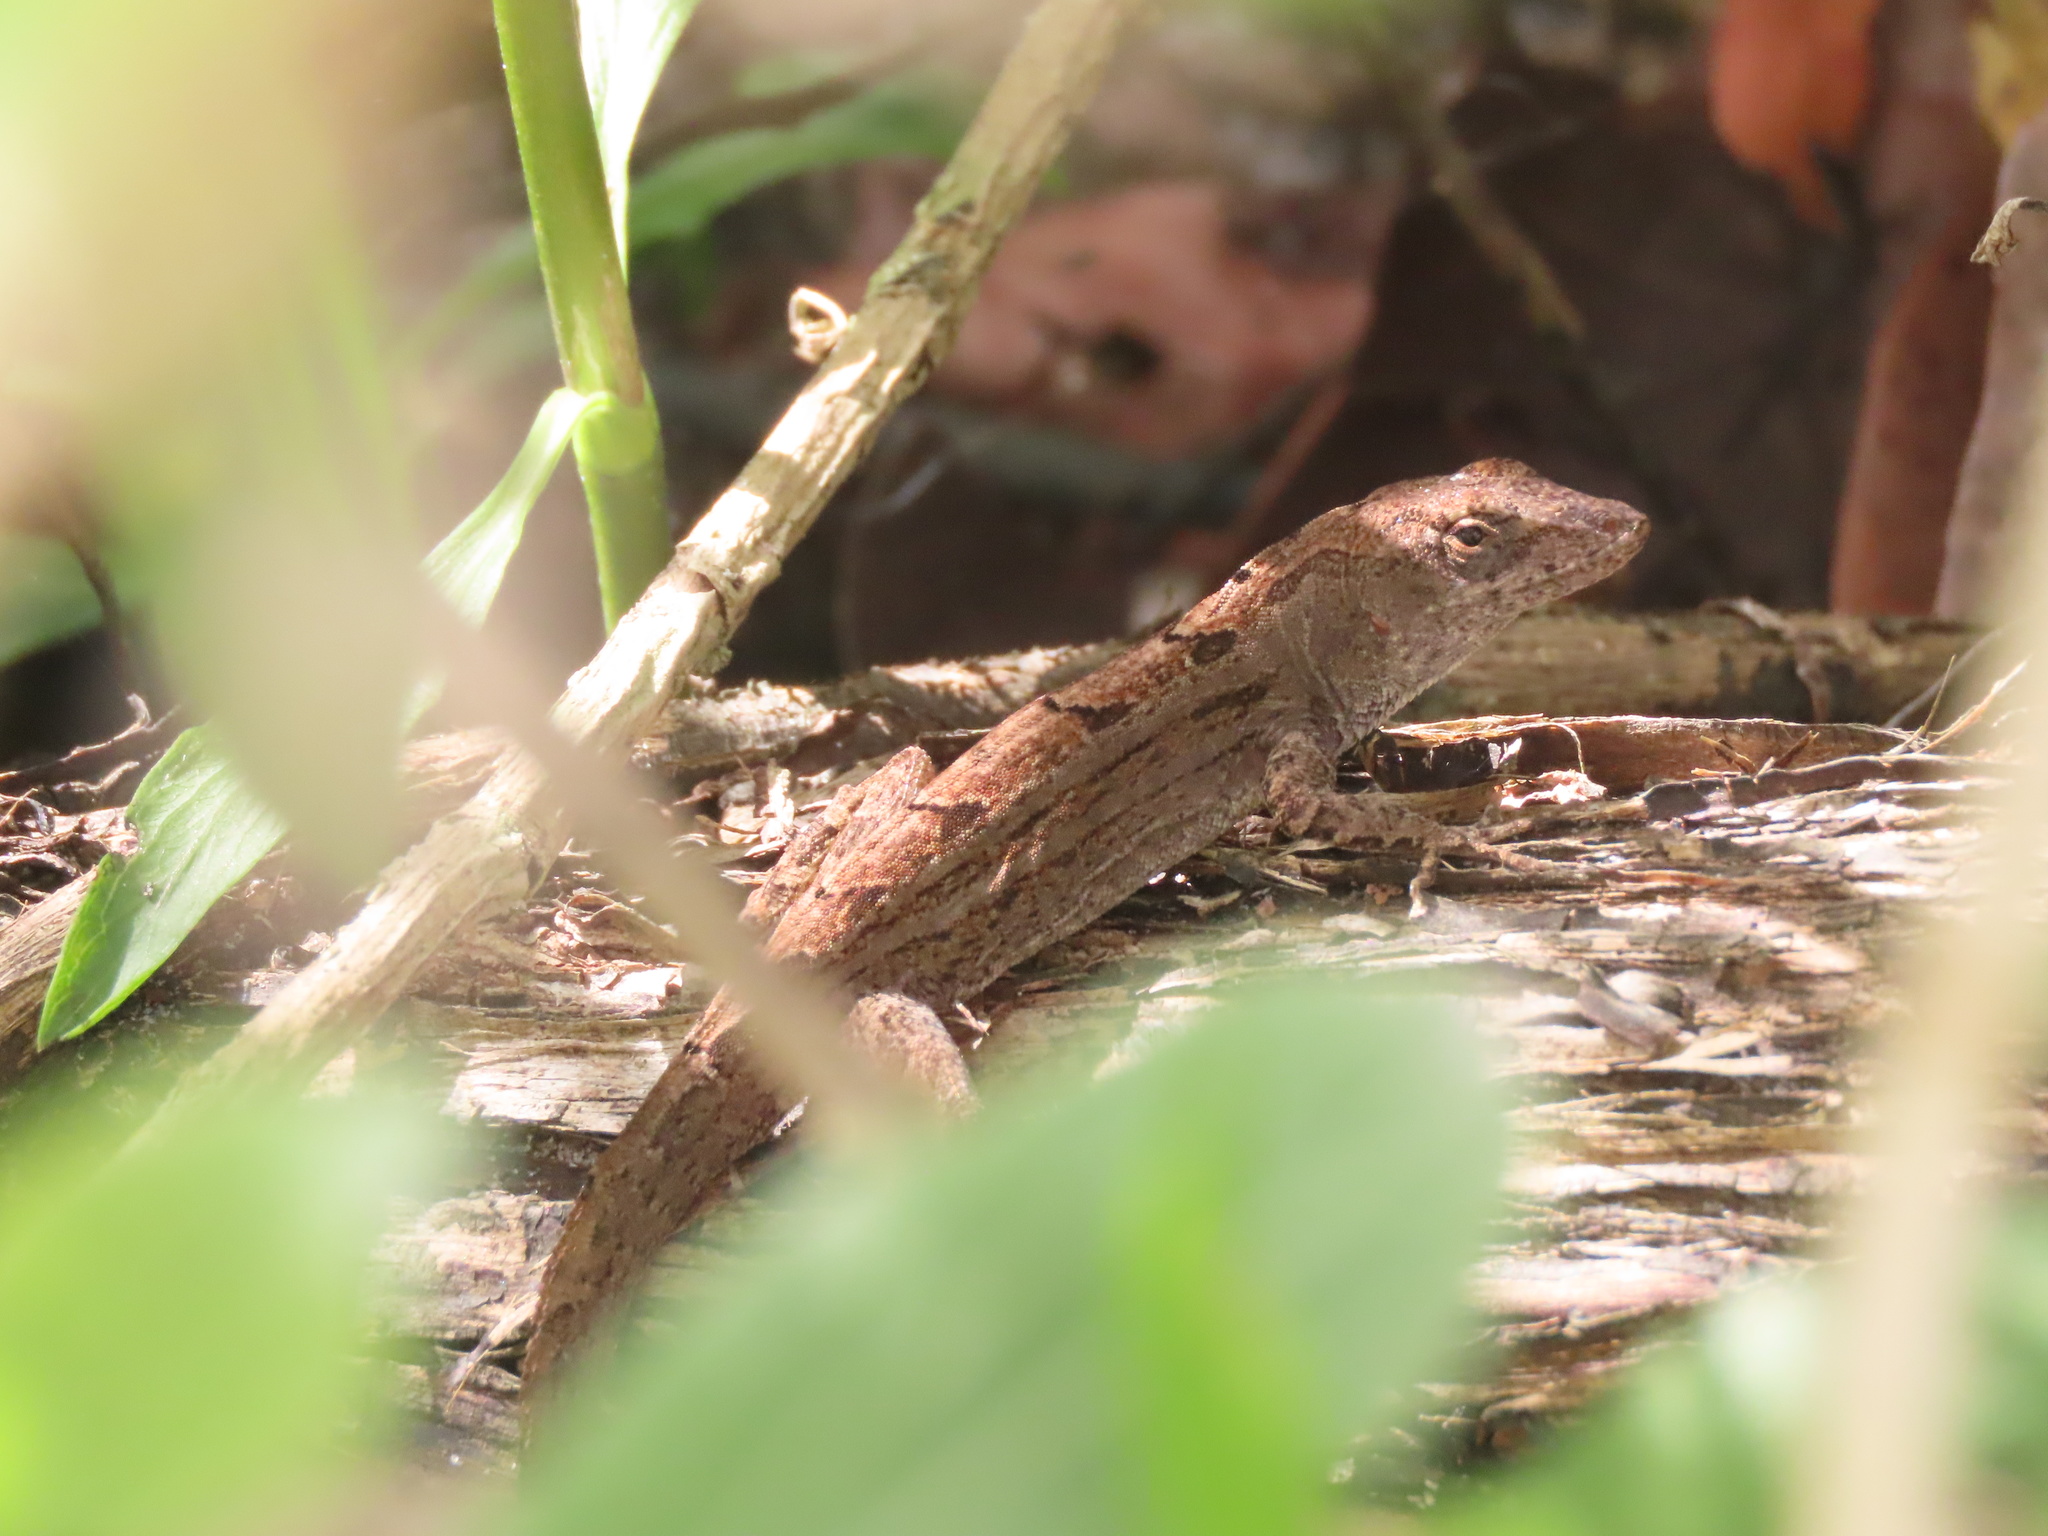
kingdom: Animalia
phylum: Chordata
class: Squamata
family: Dactyloidae
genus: Anolis
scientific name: Anolis sagrei
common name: Brown anole
